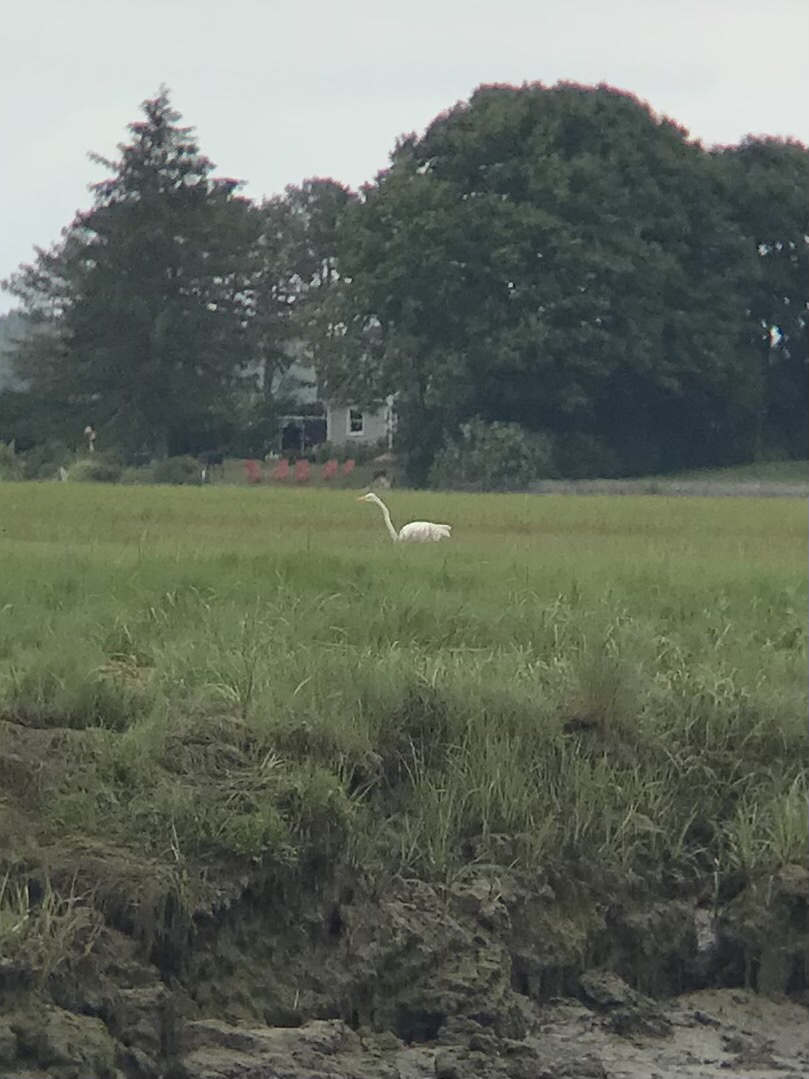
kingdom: Animalia
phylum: Chordata
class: Aves
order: Pelecaniformes
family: Ardeidae
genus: Ardea
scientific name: Ardea alba
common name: Great egret
